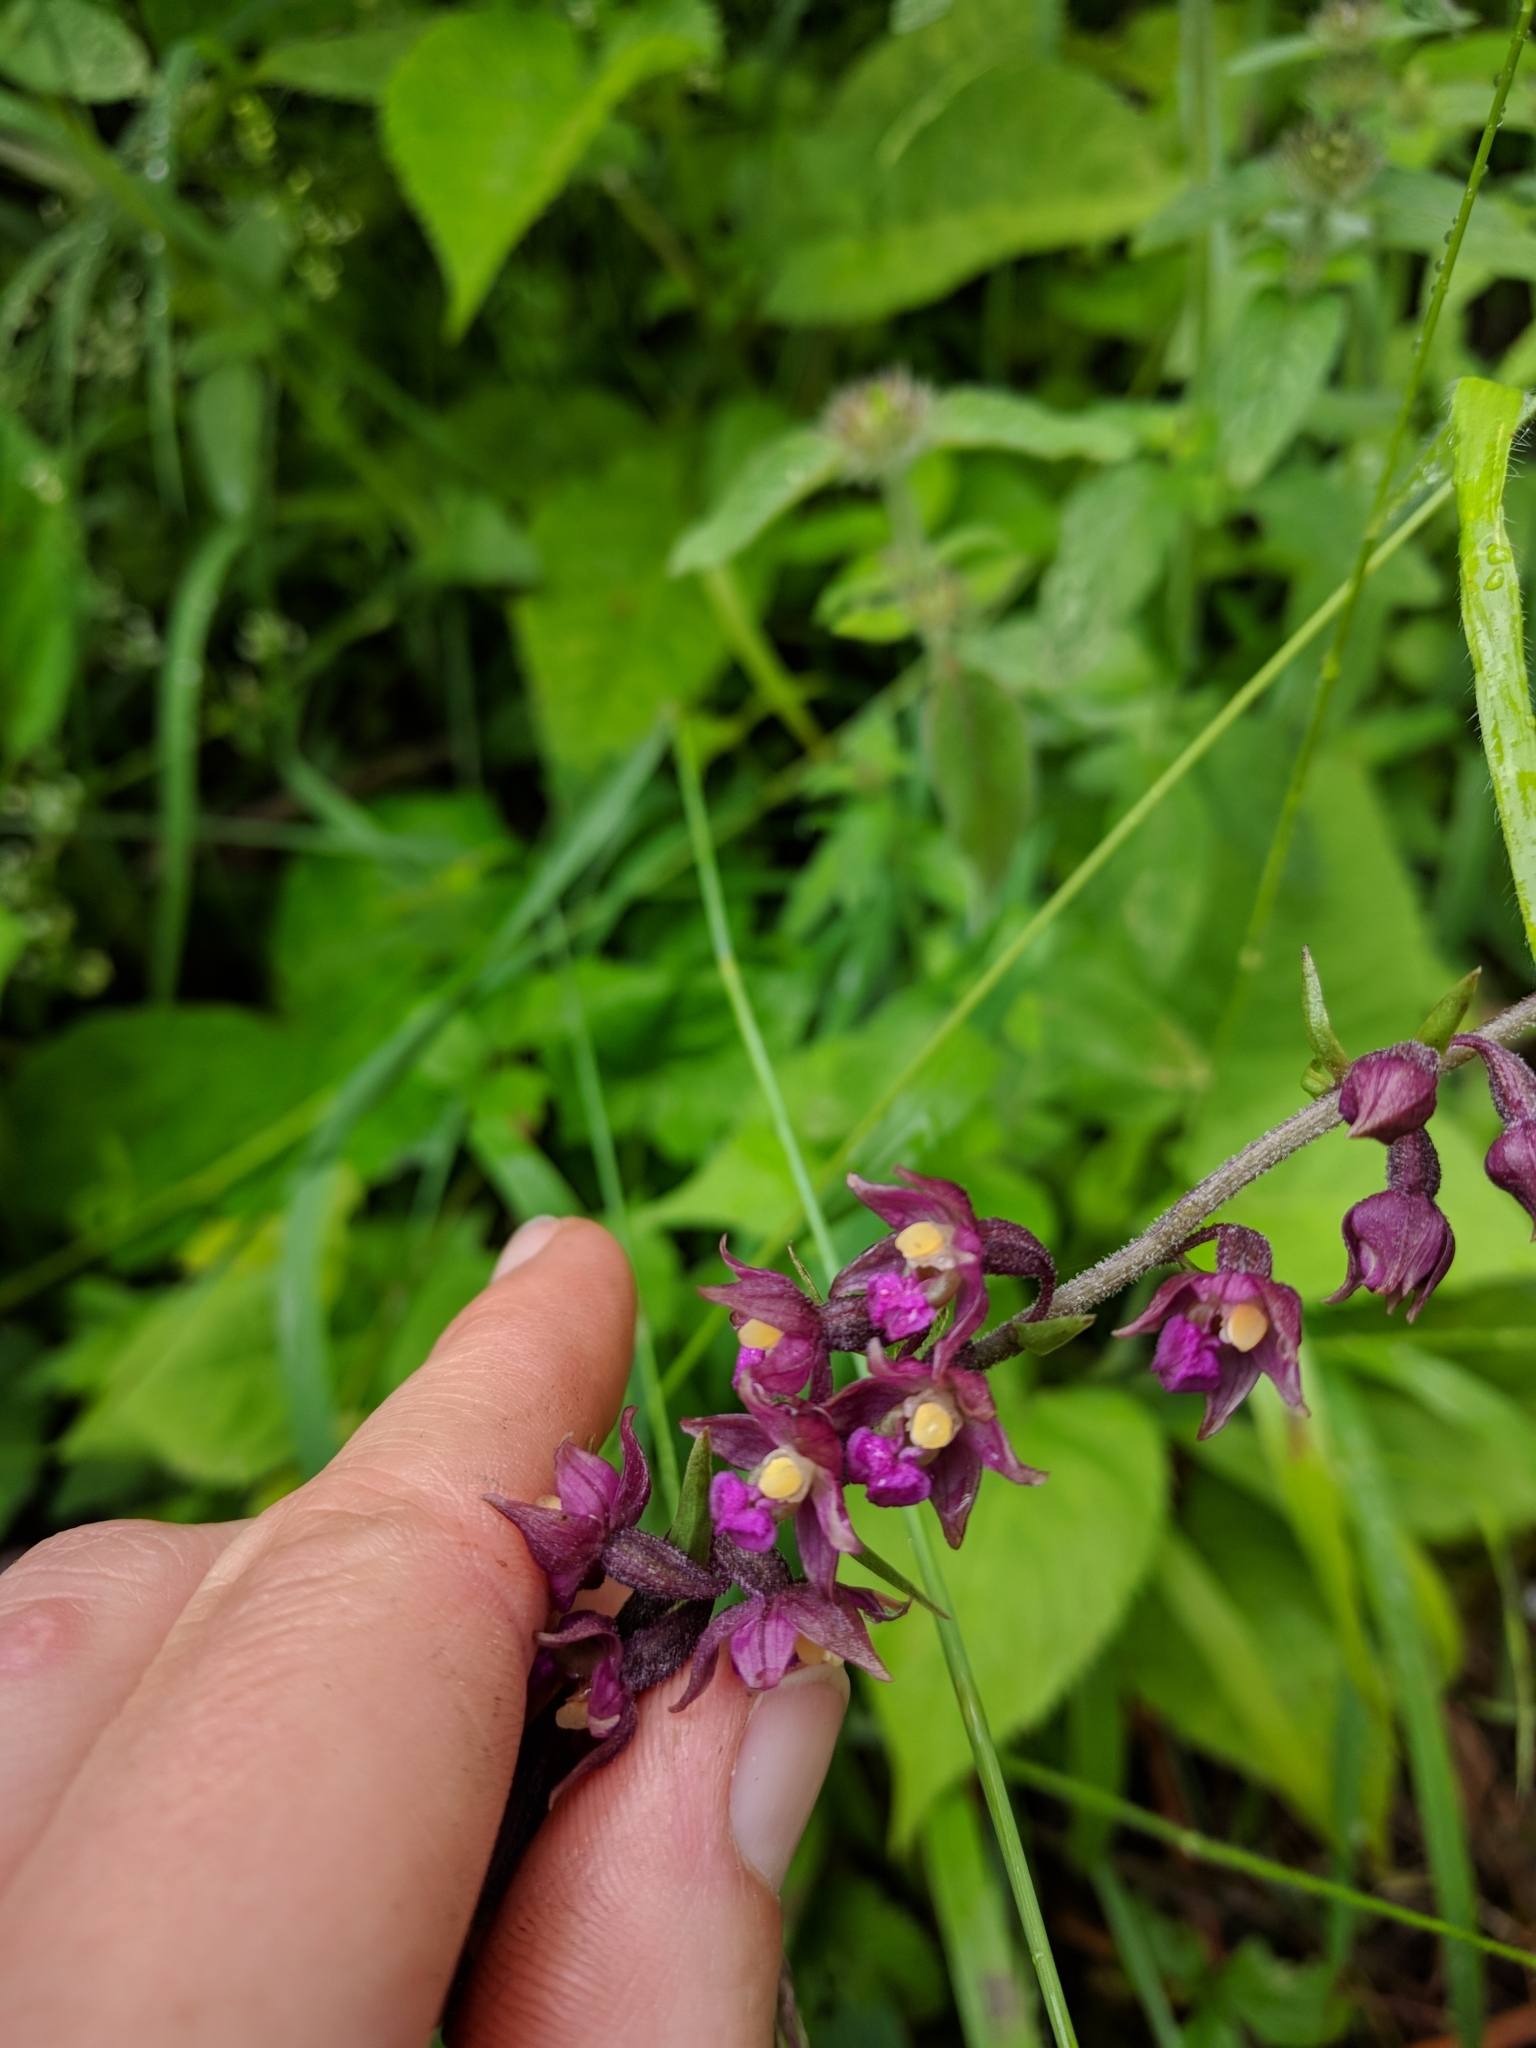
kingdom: Plantae
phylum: Tracheophyta
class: Liliopsida
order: Asparagales
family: Orchidaceae
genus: Epipactis
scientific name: Epipactis atrorubens
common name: Dark-red helleborine
